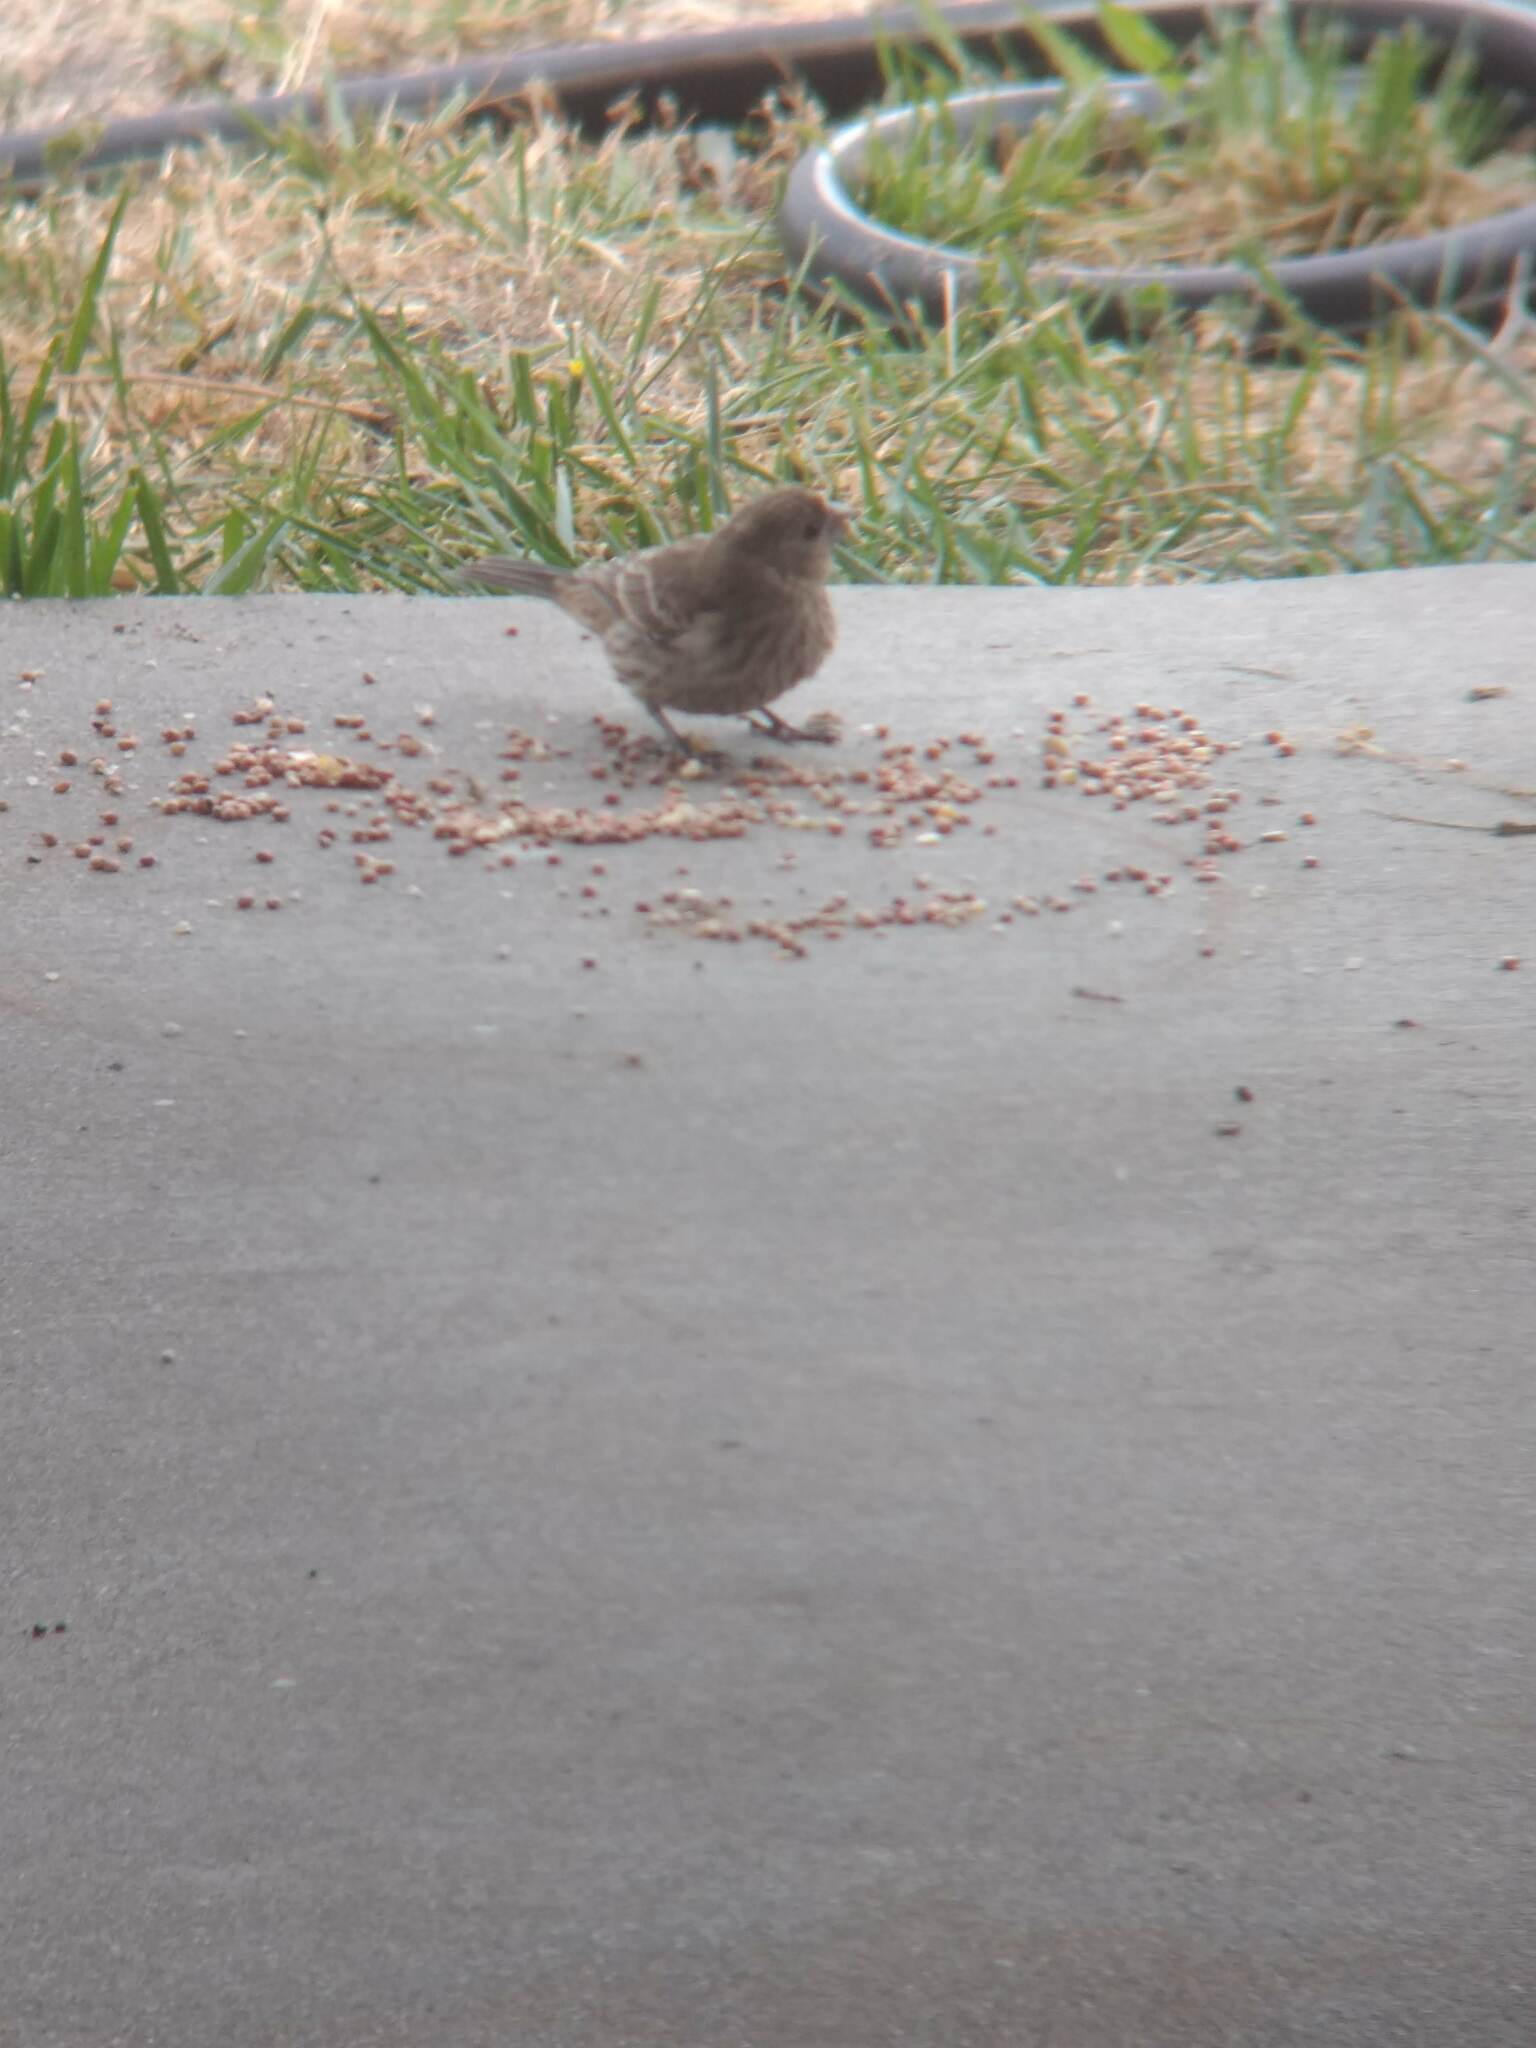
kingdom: Animalia
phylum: Chordata
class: Aves
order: Passeriformes
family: Fringillidae
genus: Haemorhous
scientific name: Haemorhous mexicanus
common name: House finch
